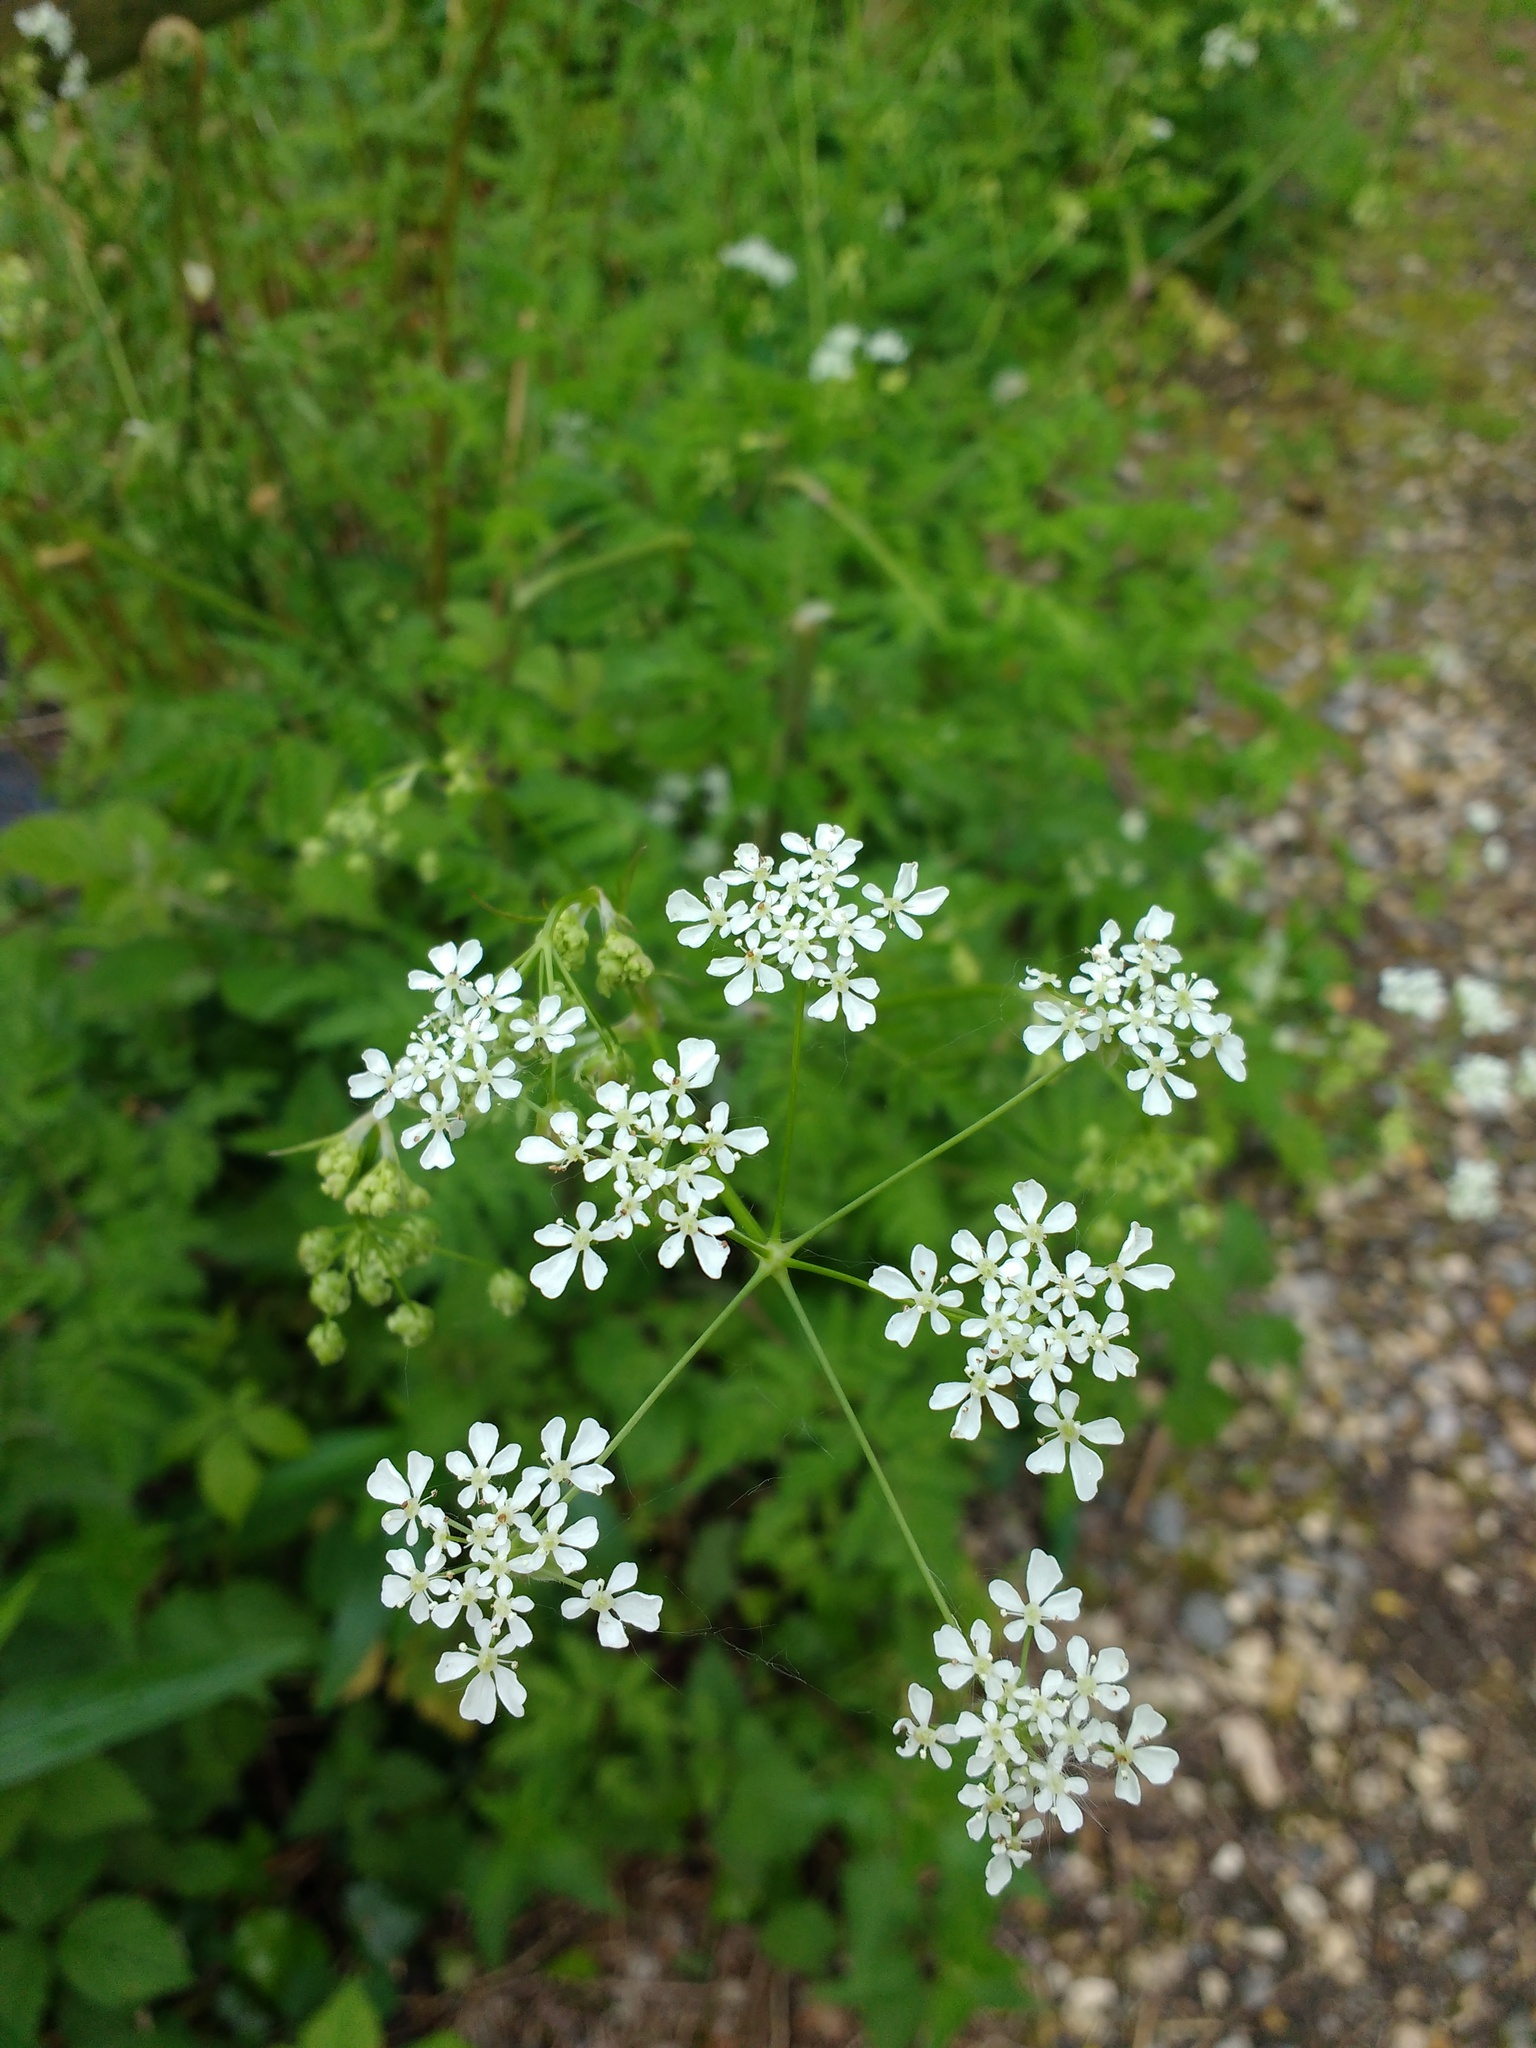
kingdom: Plantae
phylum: Tracheophyta
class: Magnoliopsida
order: Apiales
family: Apiaceae
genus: Anthriscus
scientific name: Anthriscus sylvestris
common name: Cow parsley
